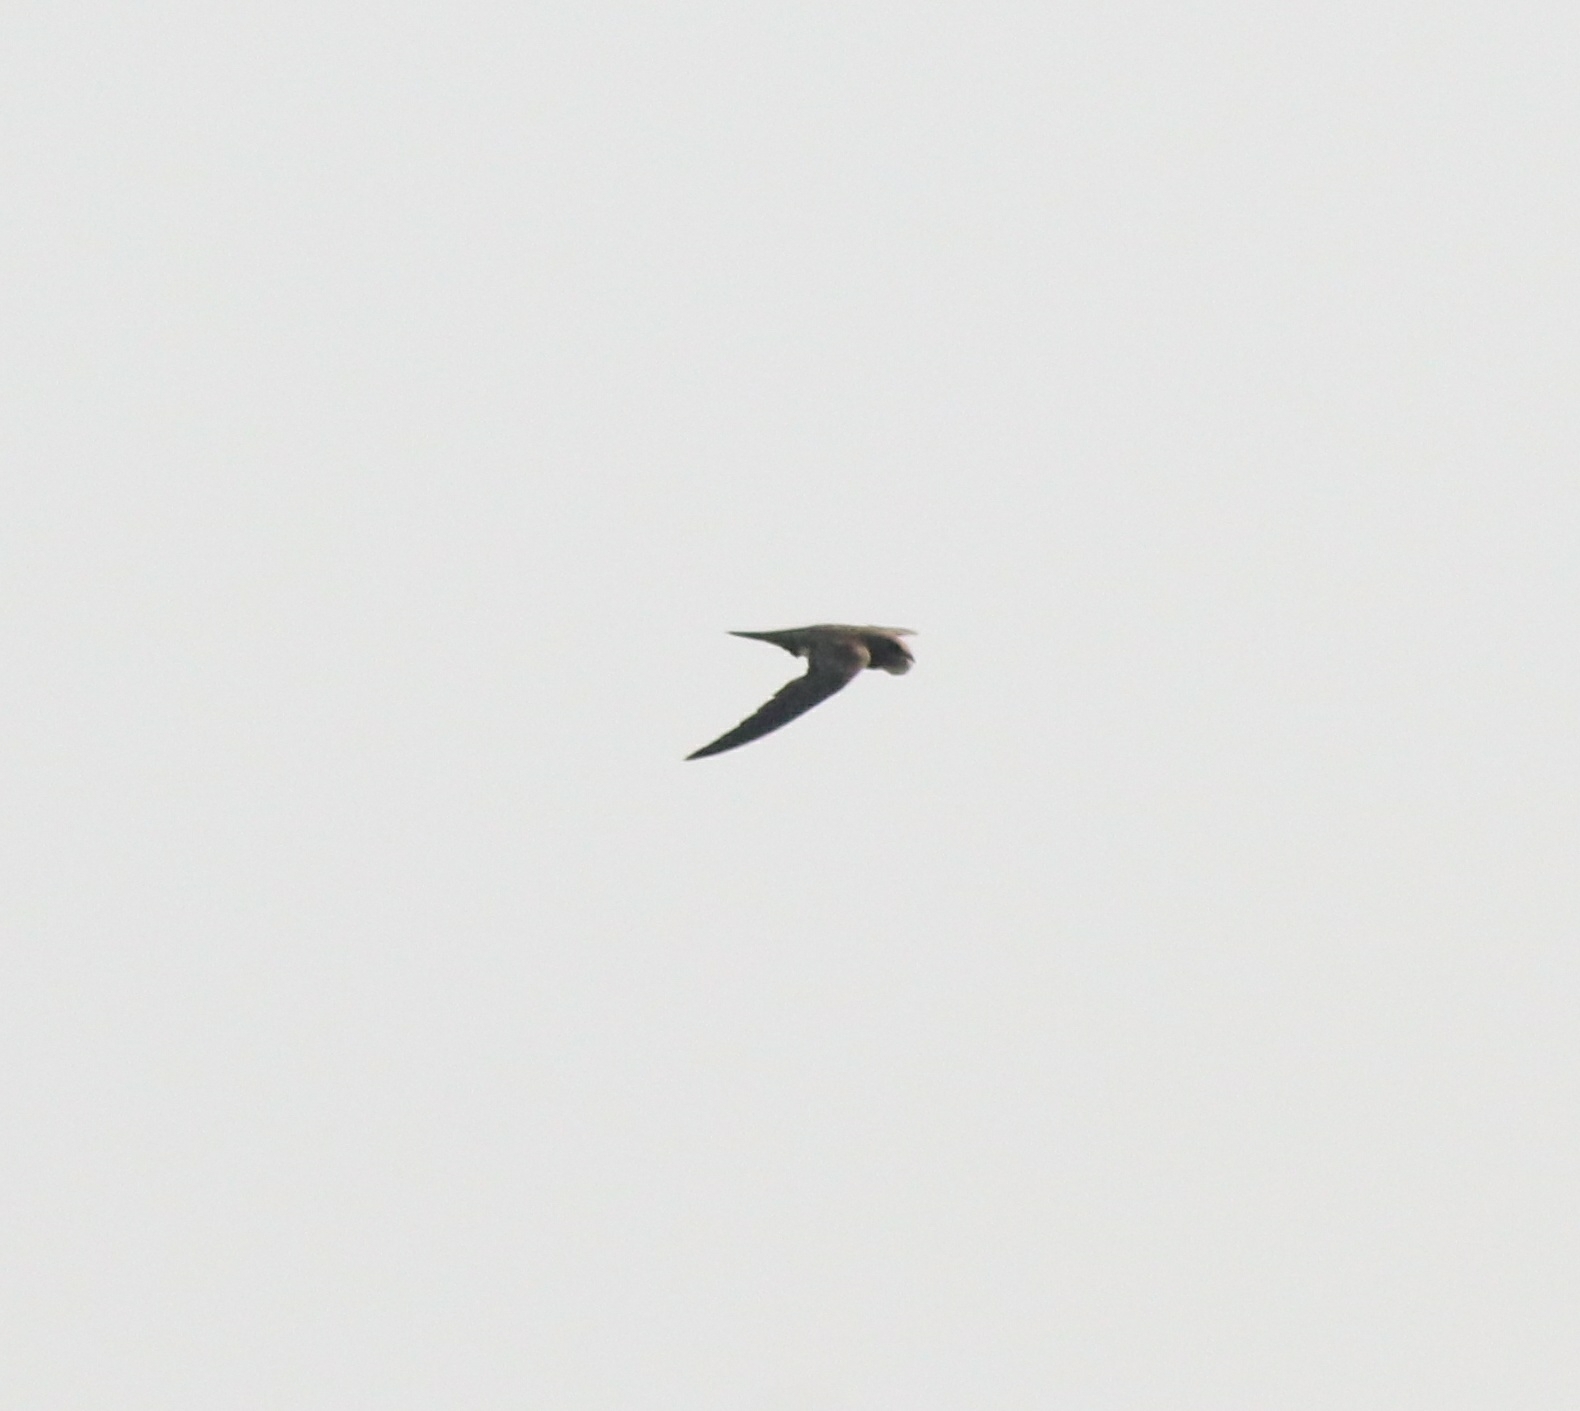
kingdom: Animalia
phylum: Chordata
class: Aves
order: Apodiformes
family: Apodidae
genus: Tachymarptis
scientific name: Tachymarptis melba
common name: Alpine swift
